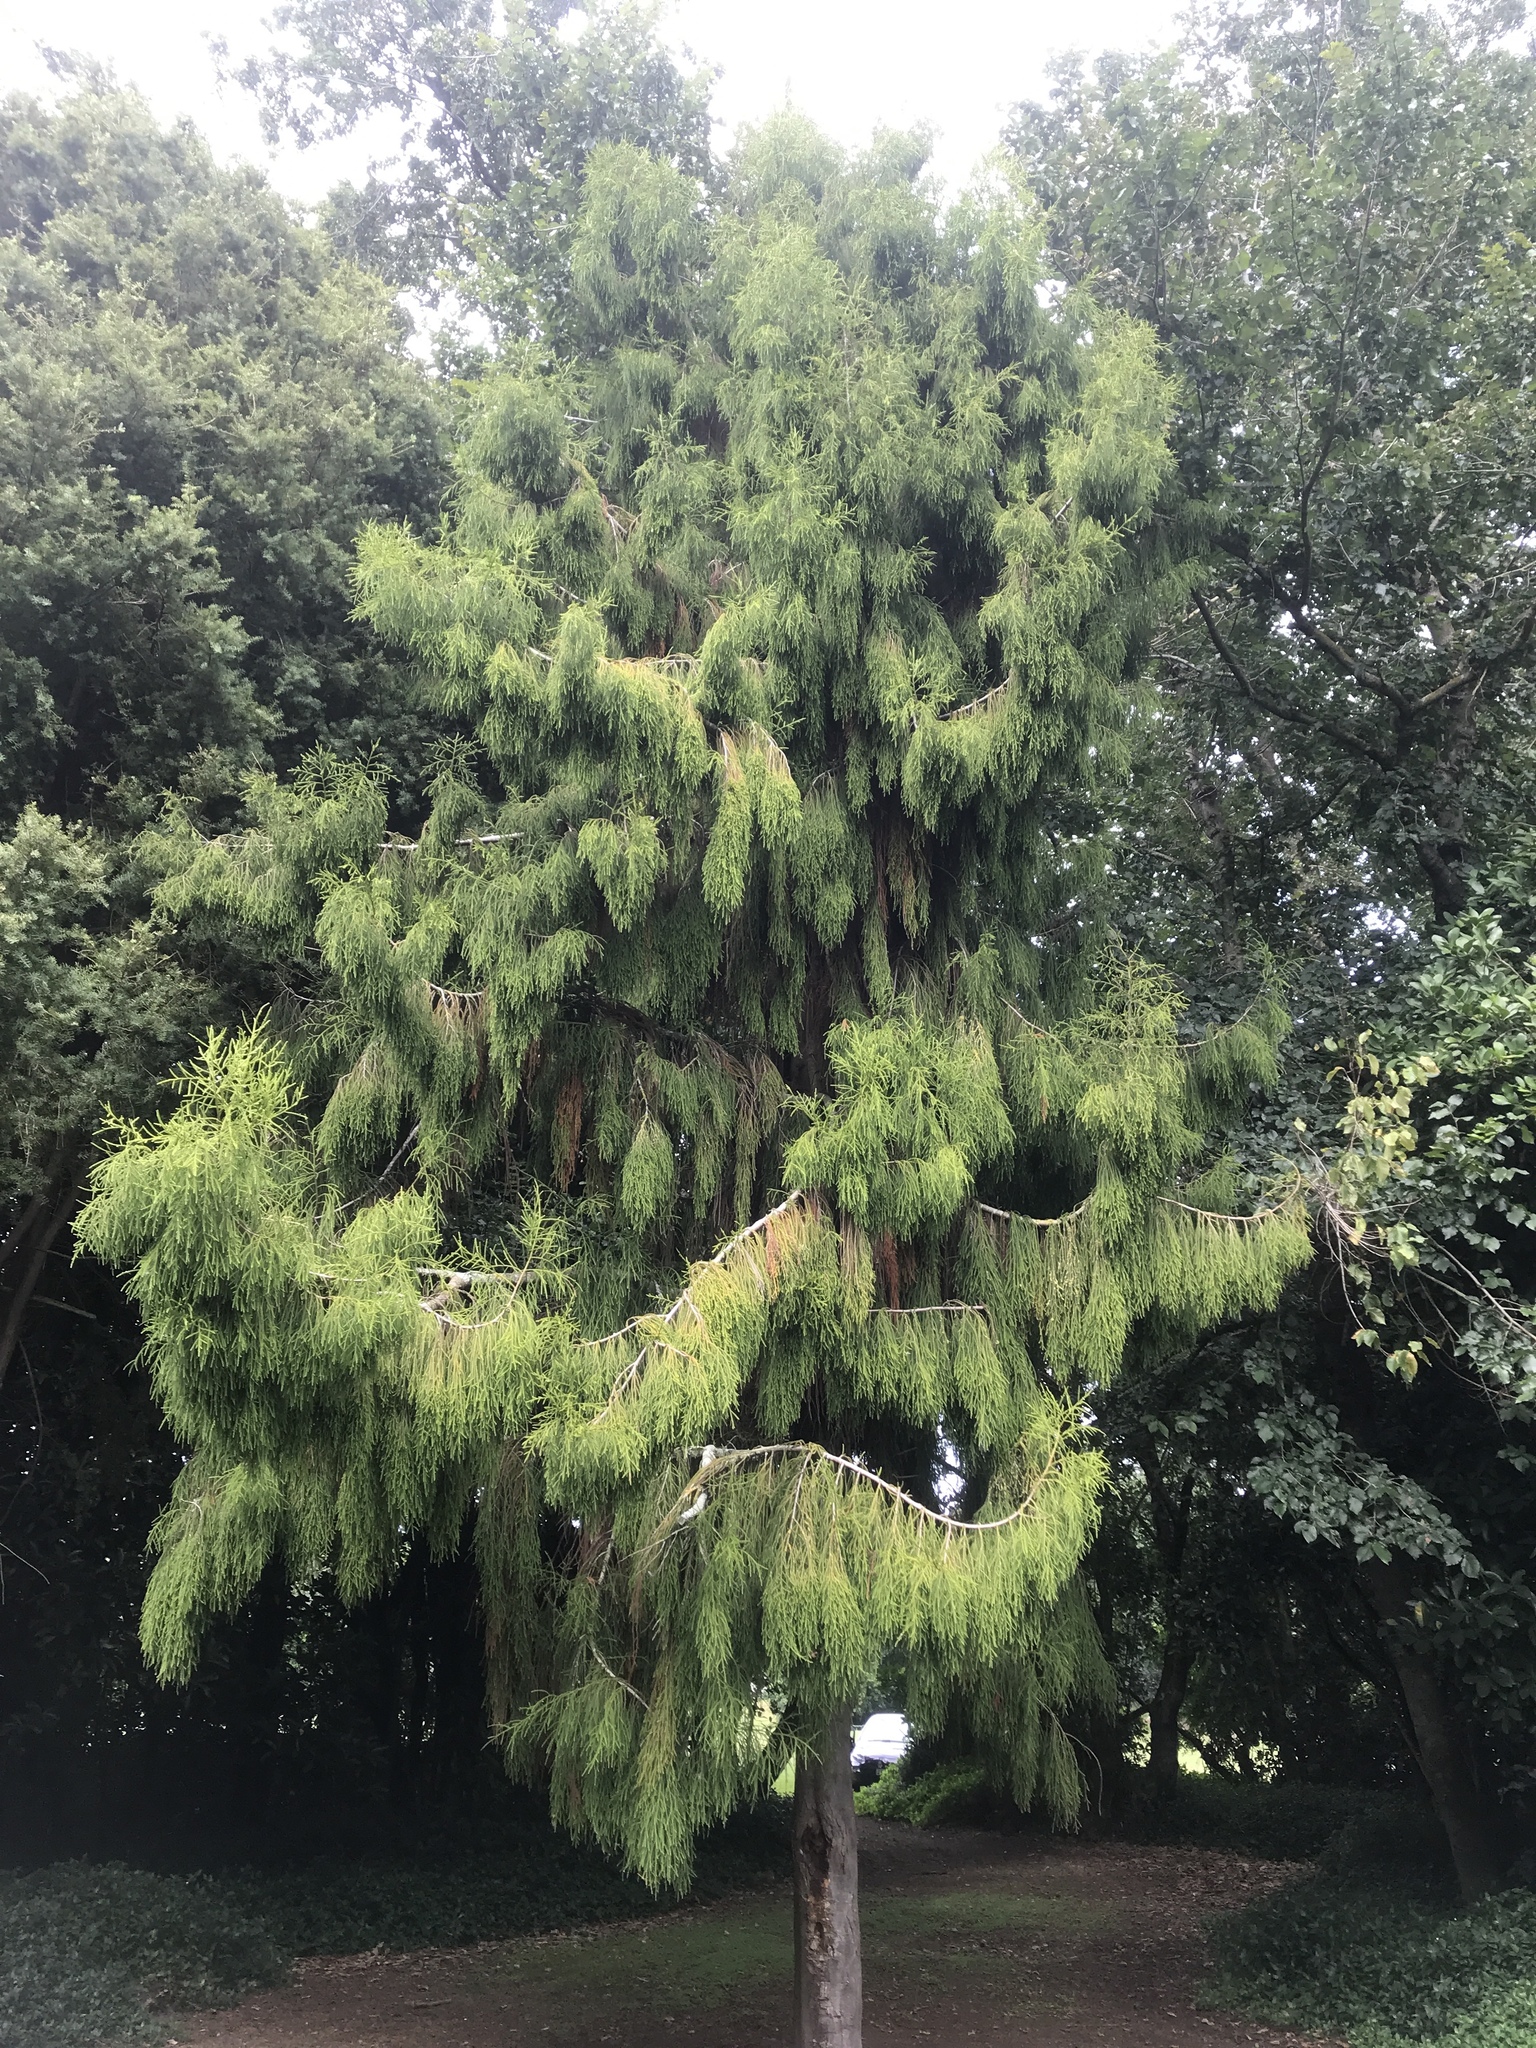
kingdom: Plantae
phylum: Tracheophyta
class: Pinopsida
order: Pinales
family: Podocarpaceae
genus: Dacrydium
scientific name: Dacrydium cupressinum
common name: Red pine
